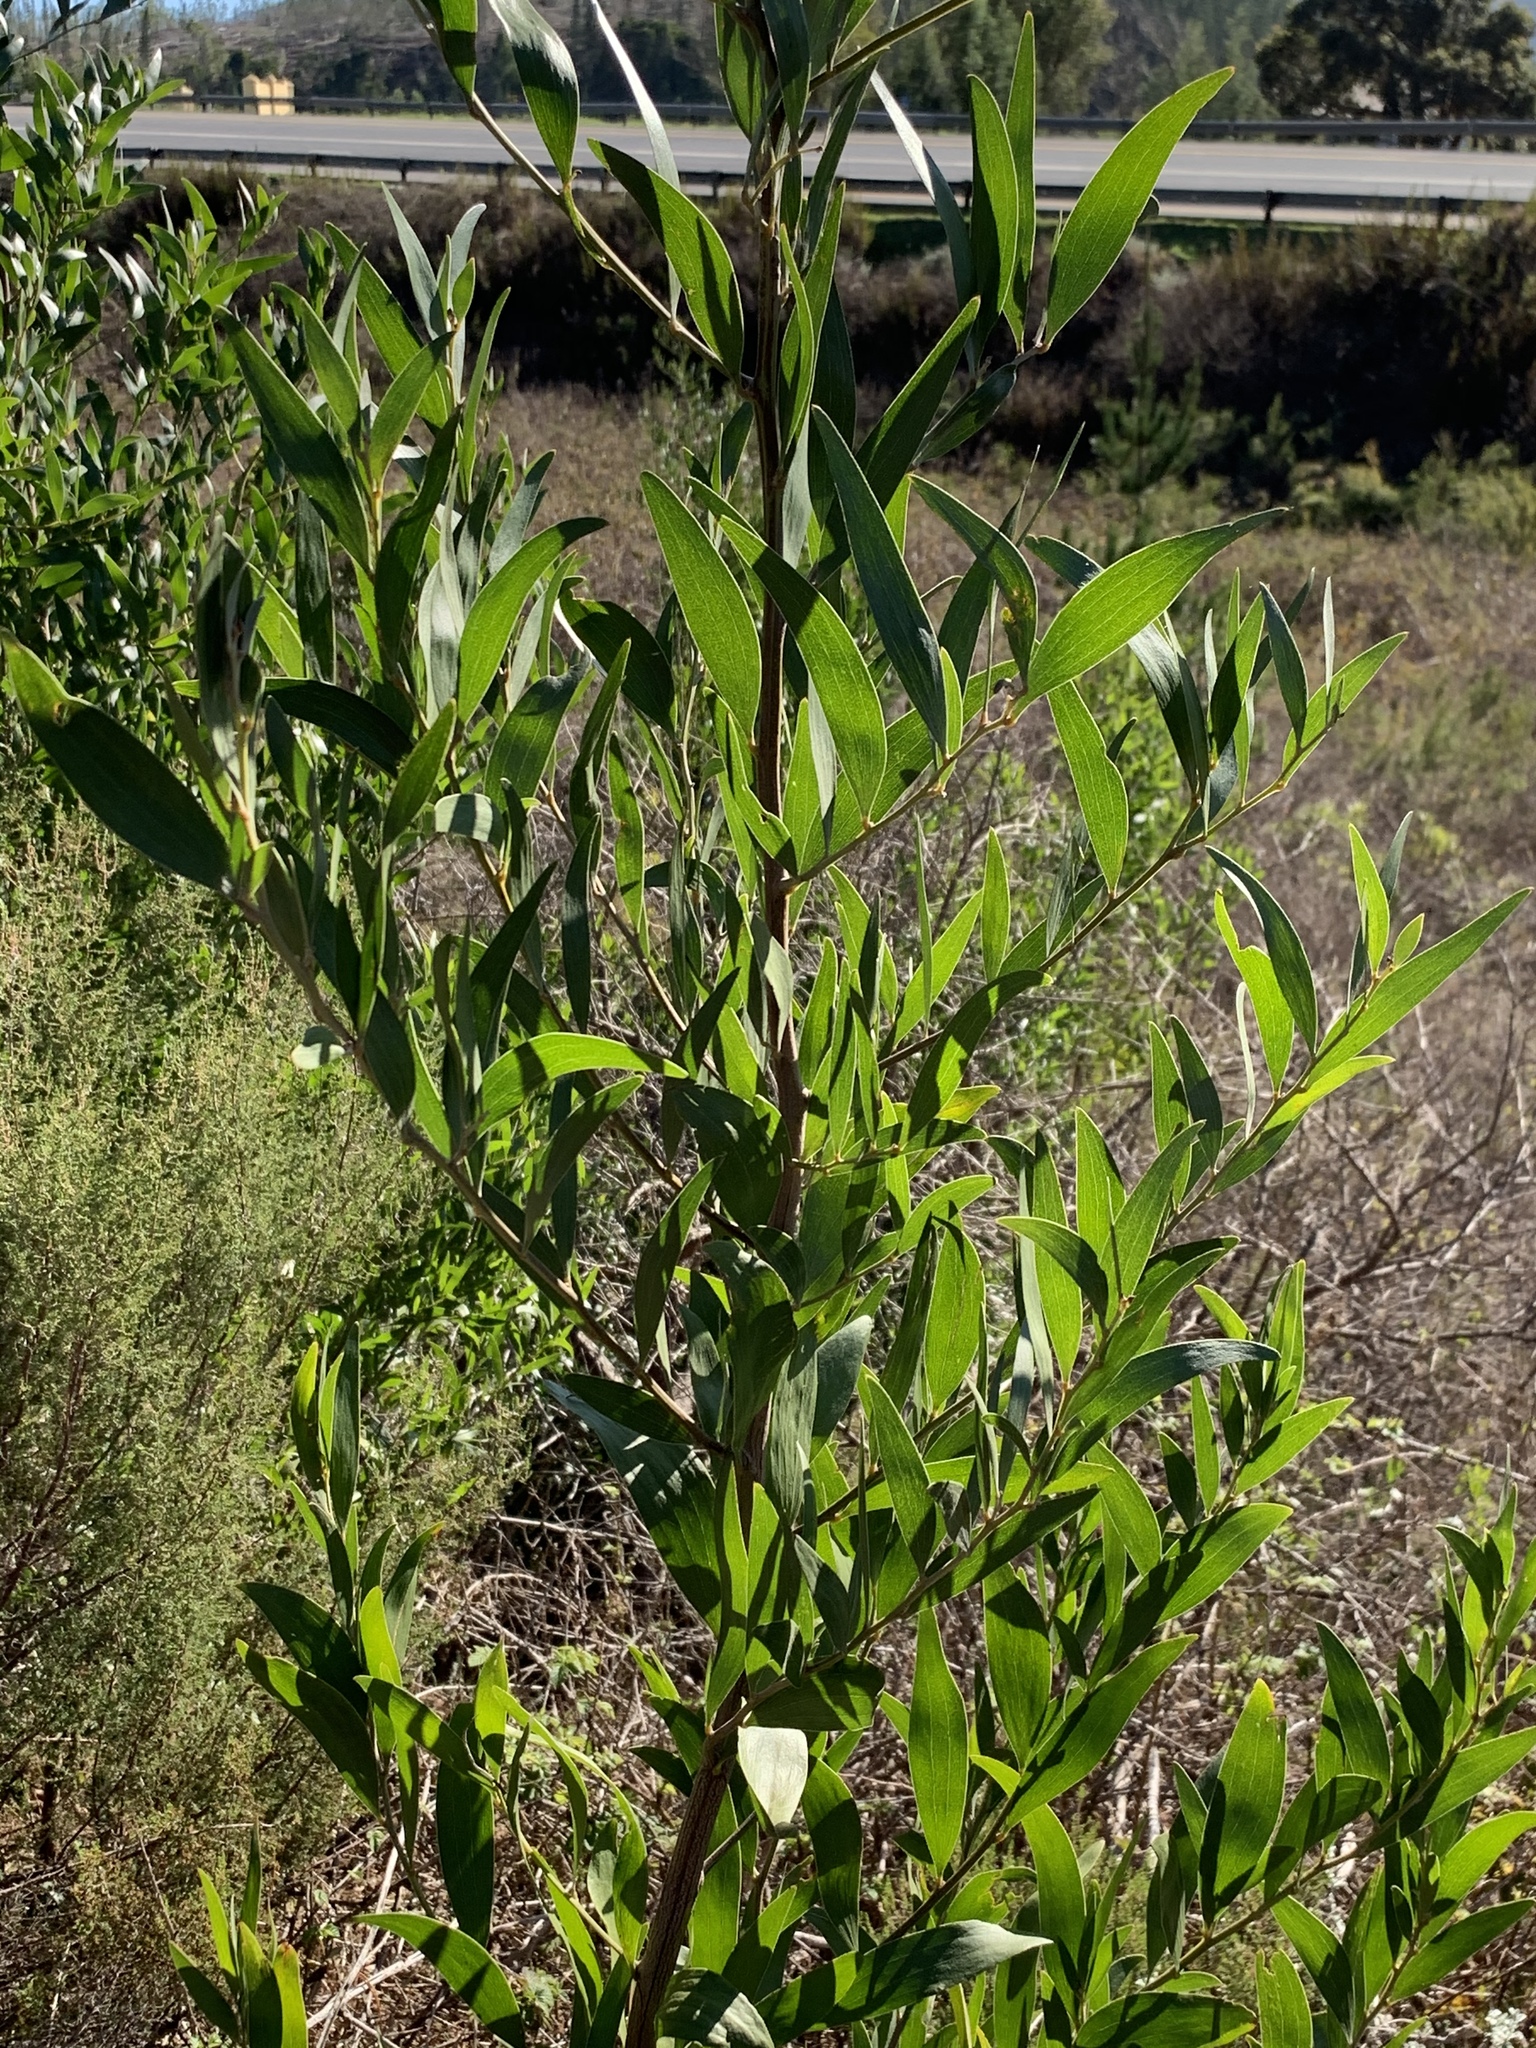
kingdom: Plantae
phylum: Tracheophyta
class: Magnoliopsida
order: Fabales
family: Fabaceae
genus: Acacia
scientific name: Acacia melanoxylon
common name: Blackwood
